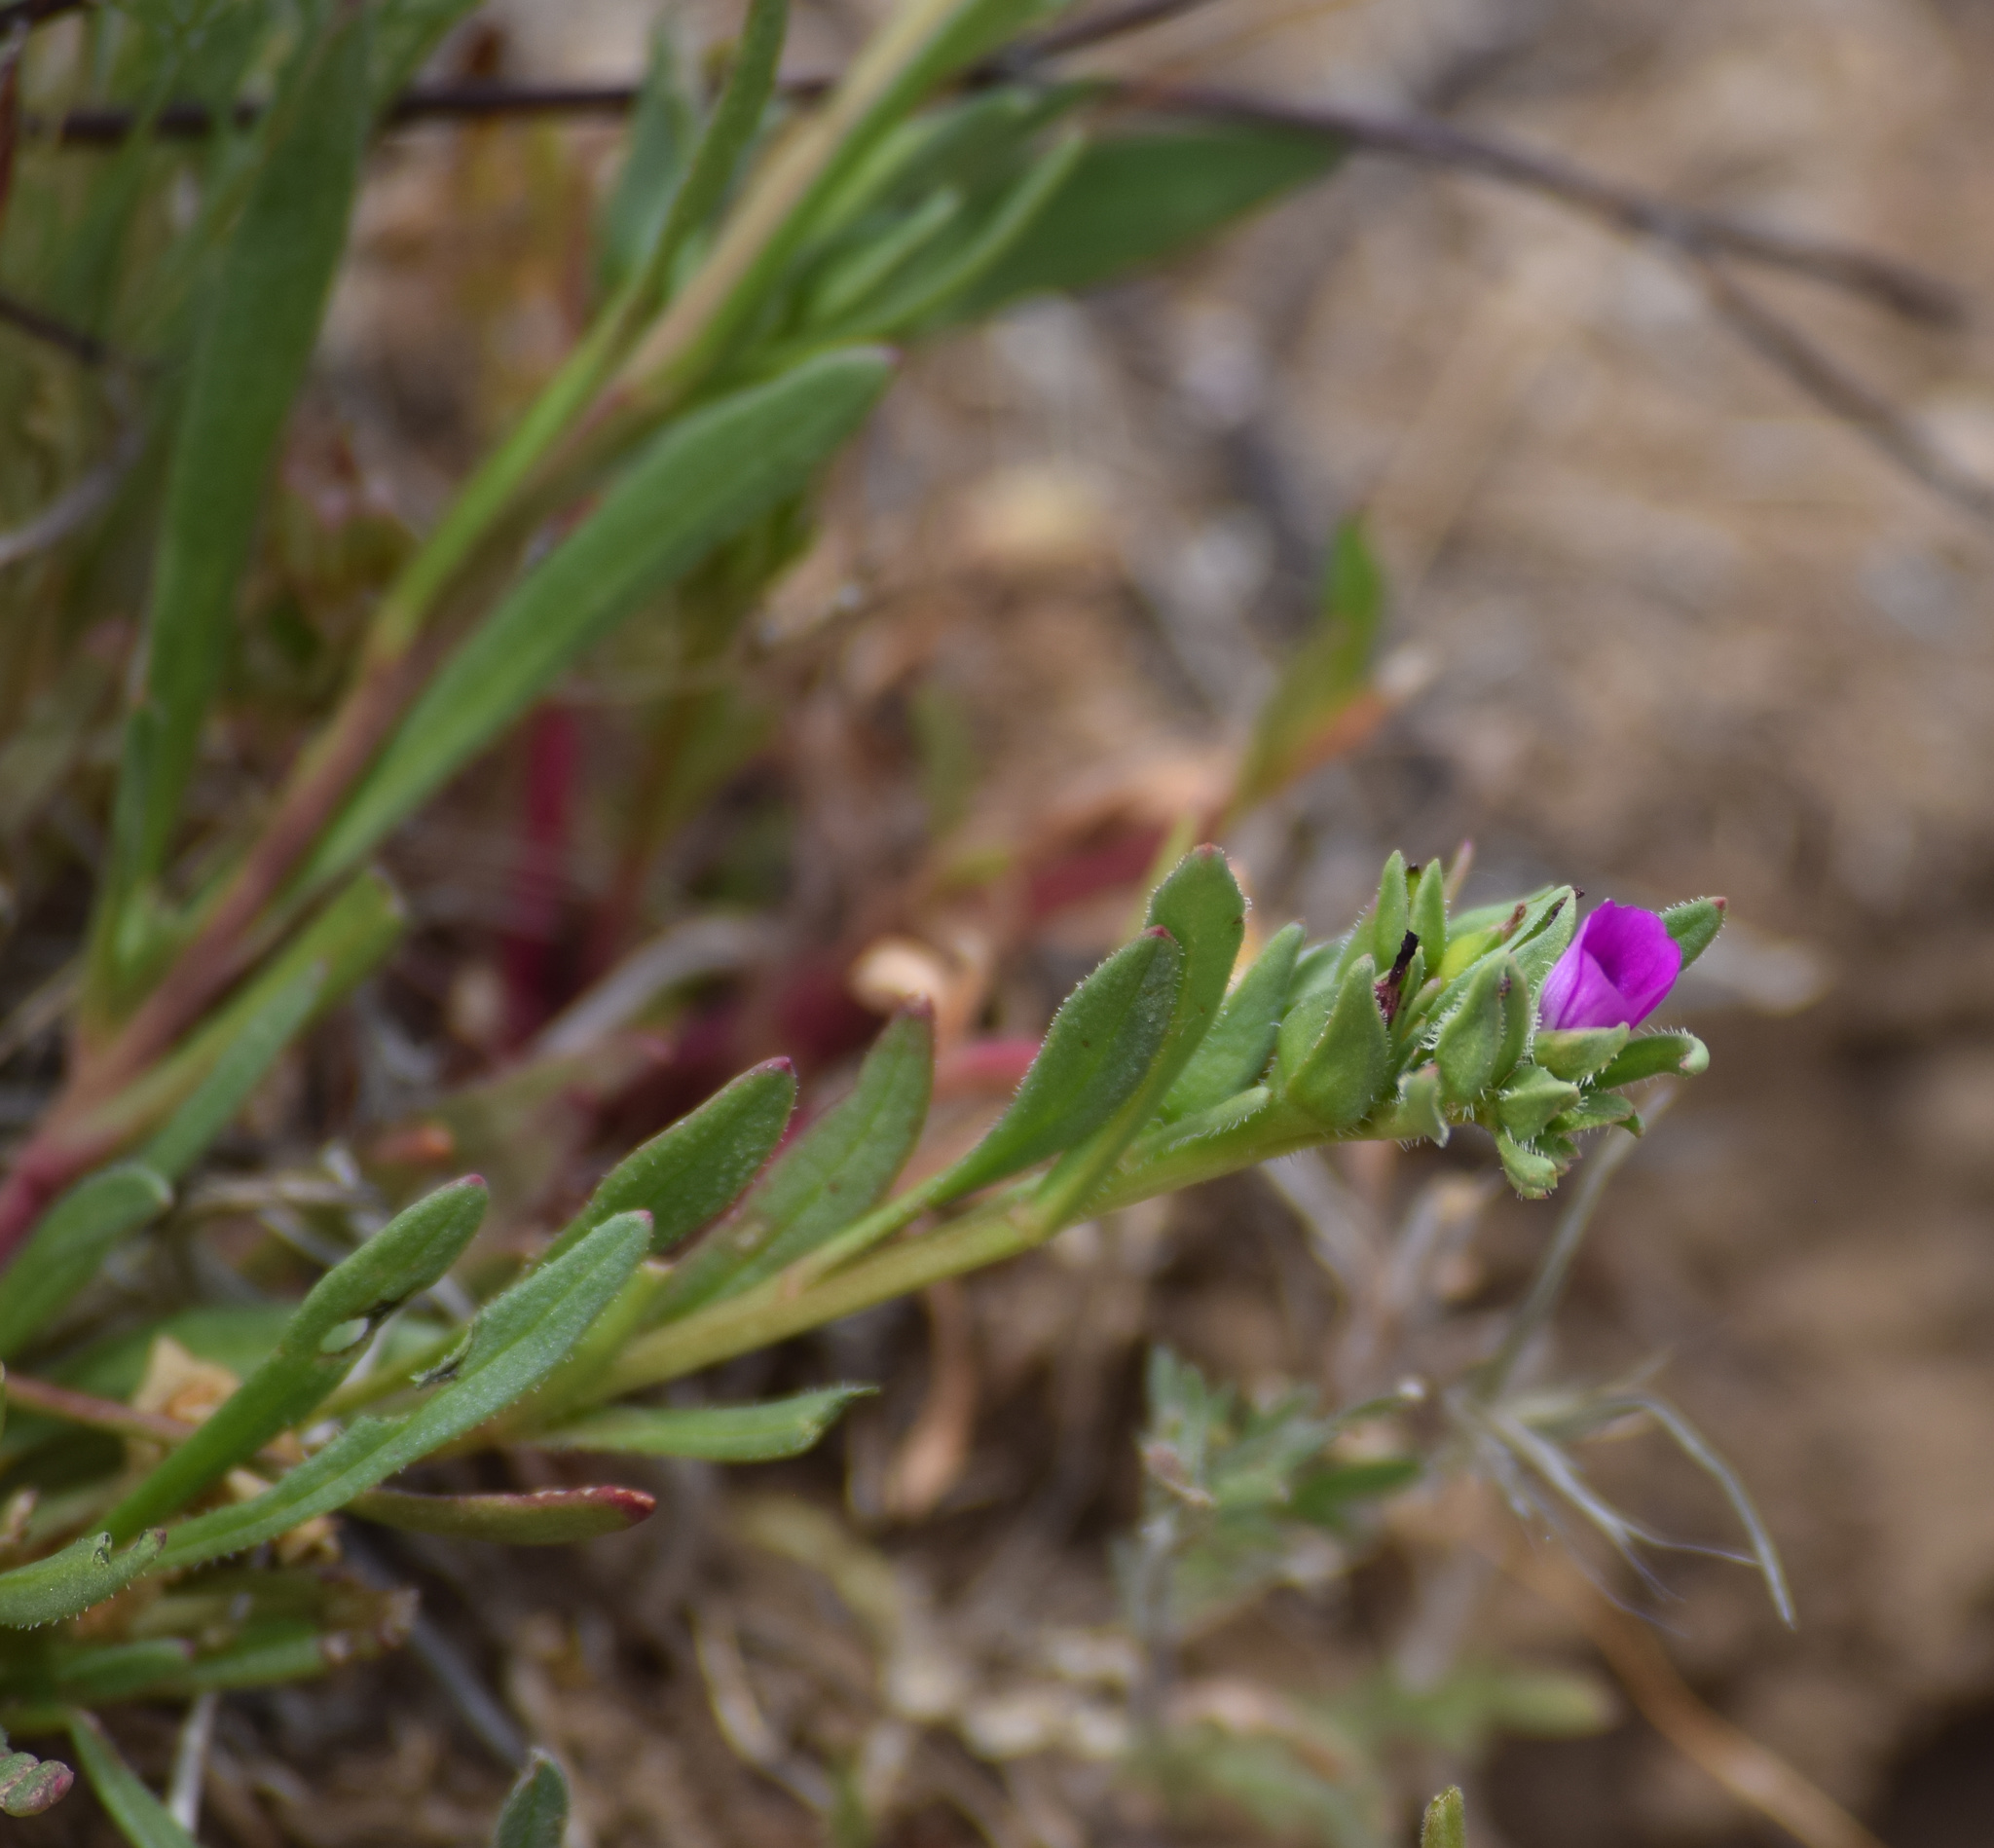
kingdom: Plantae
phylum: Tracheophyta
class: Magnoliopsida
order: Caryophyllales
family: Montiaceae
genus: Calandrinia
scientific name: Calandrinia menziesii
